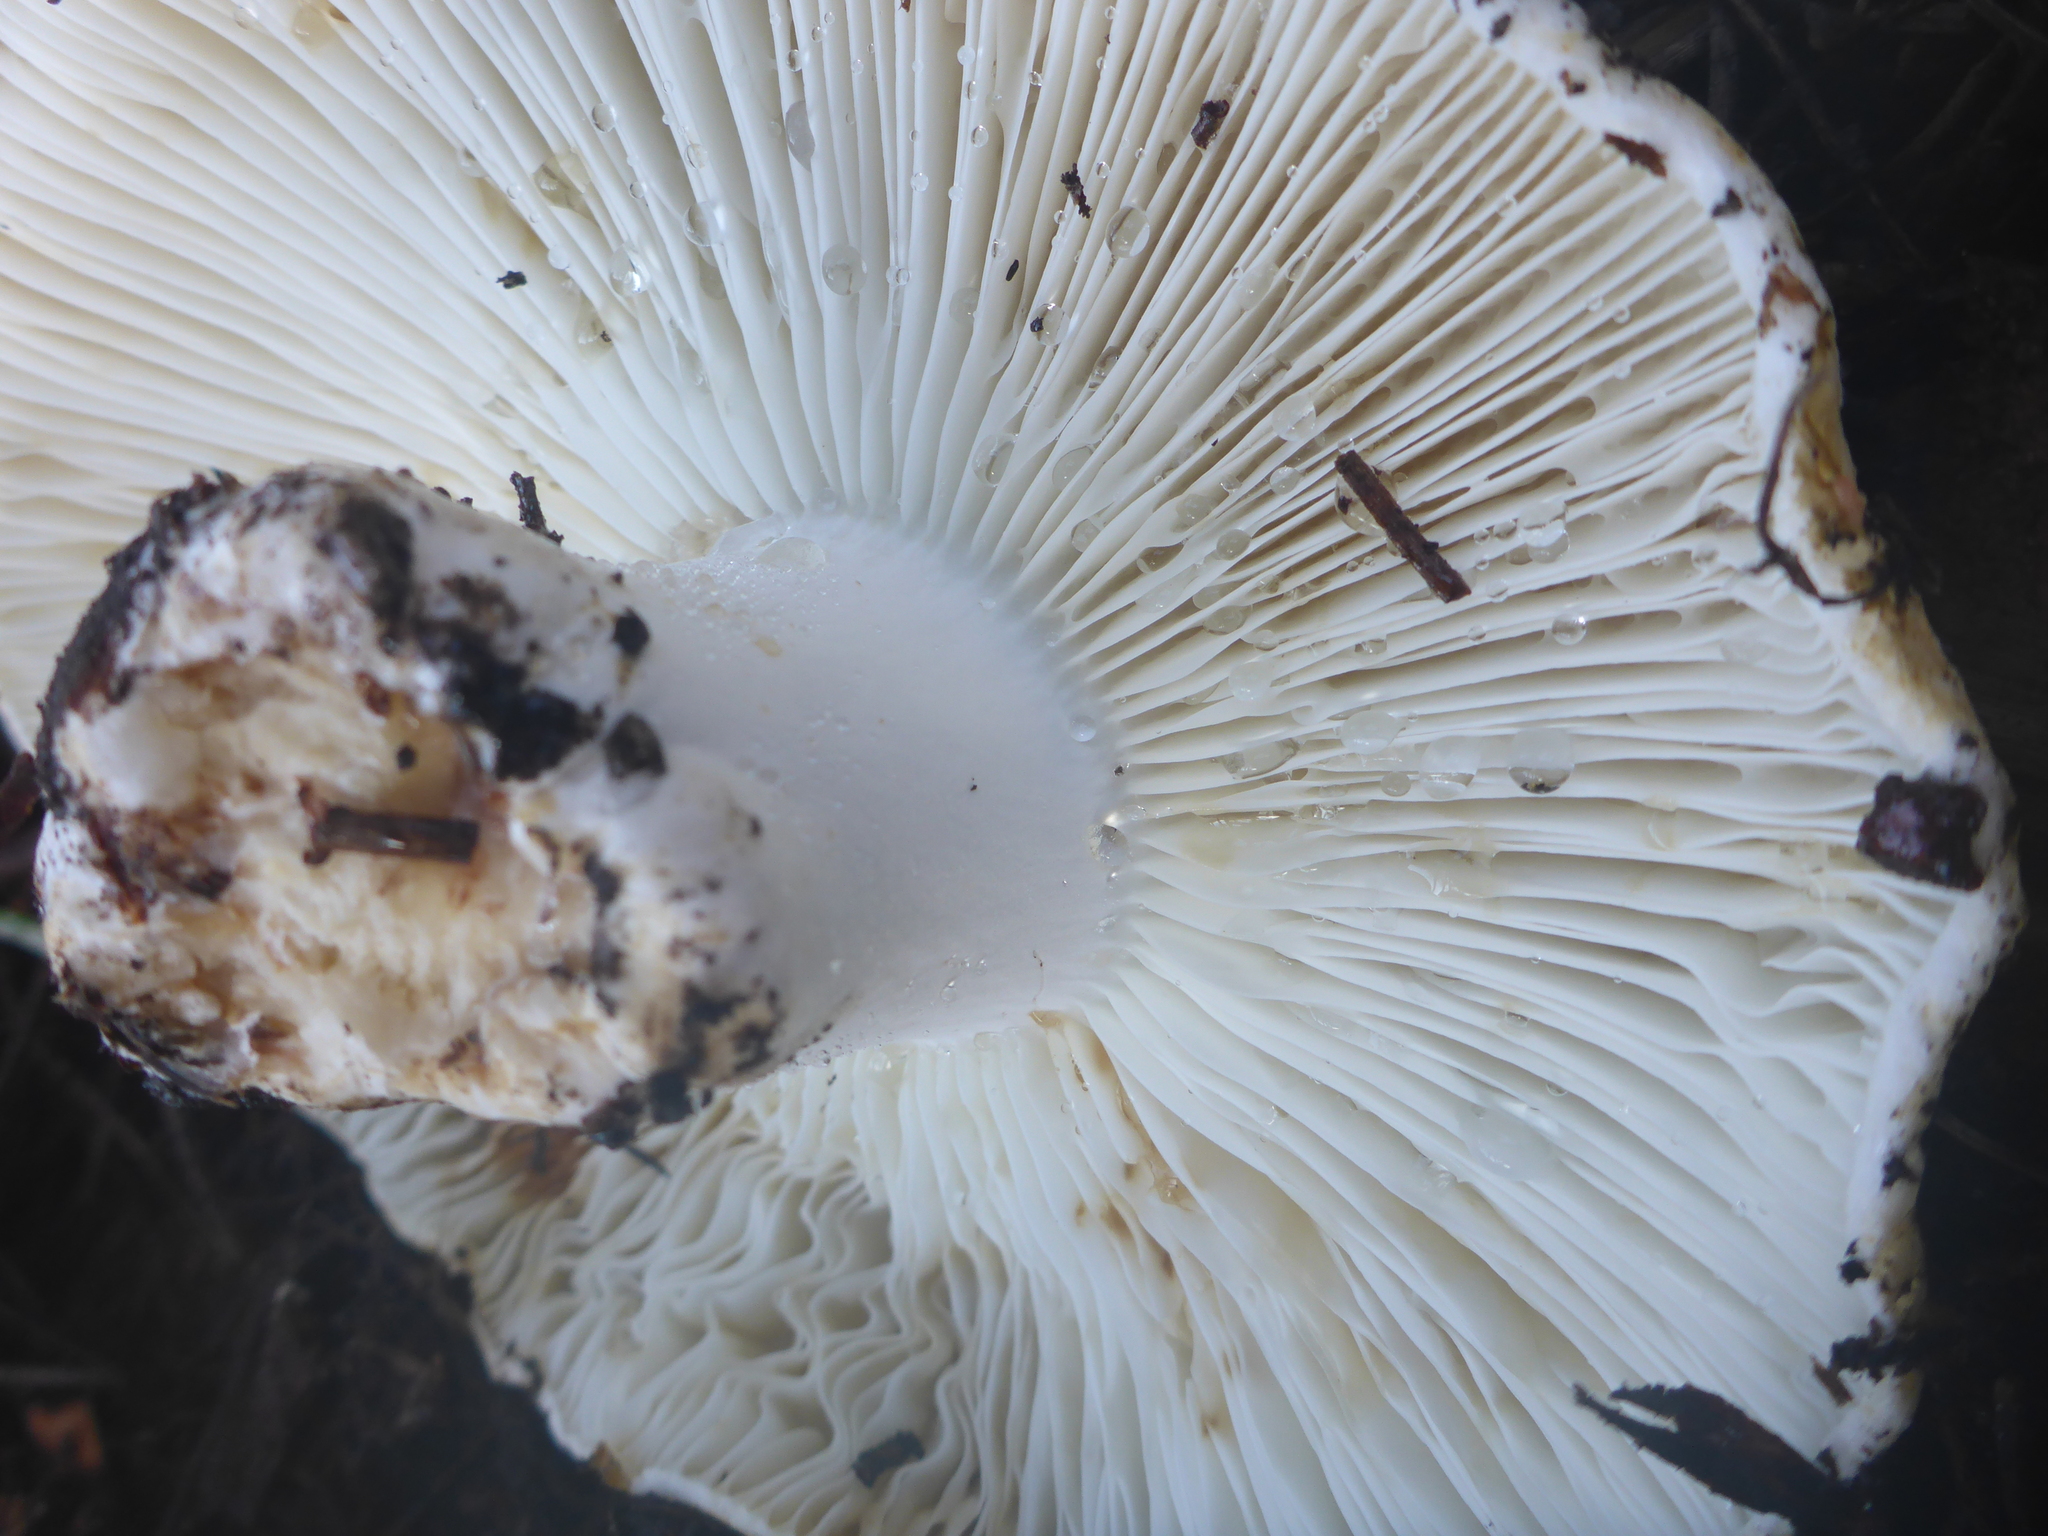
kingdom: Fungi
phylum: Basidiomycota
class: Agaricomycetes
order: Russulales
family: Russulaceae
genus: Russula
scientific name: Russula brevipes
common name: Short-stemmed russula
